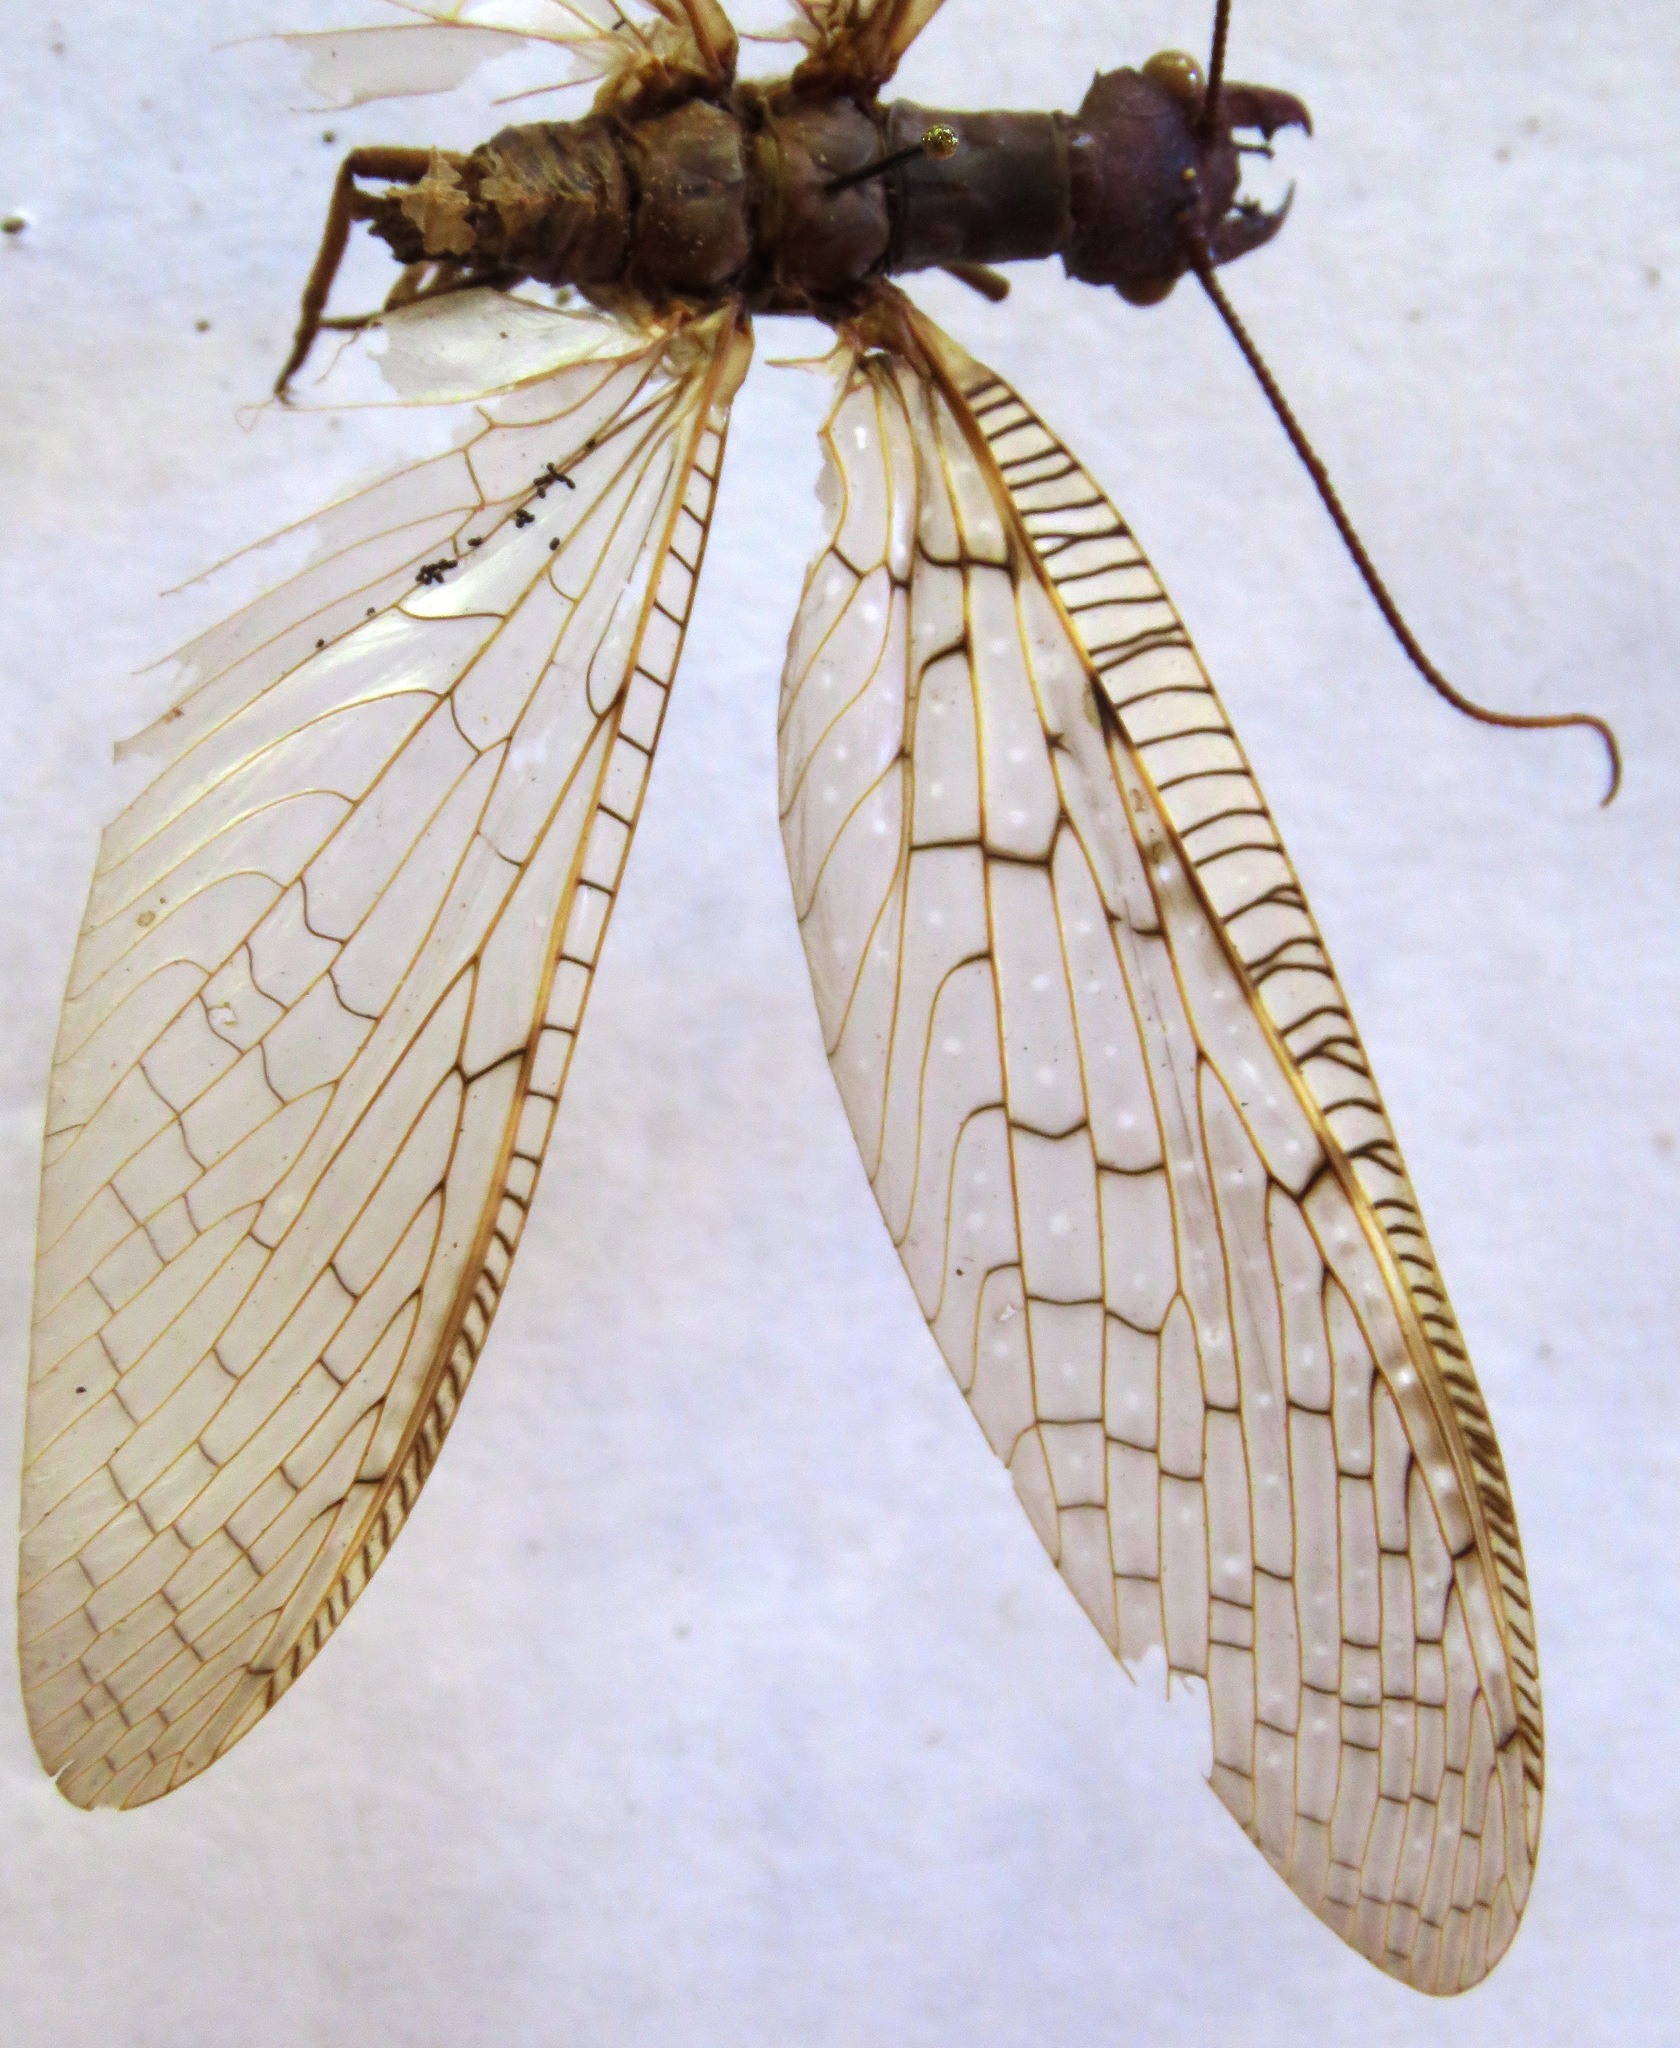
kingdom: Animalia
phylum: Arthropoda
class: Insecta
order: Megaloptera
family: Corydalidae
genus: Corydalus
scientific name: Corydalus magnus
